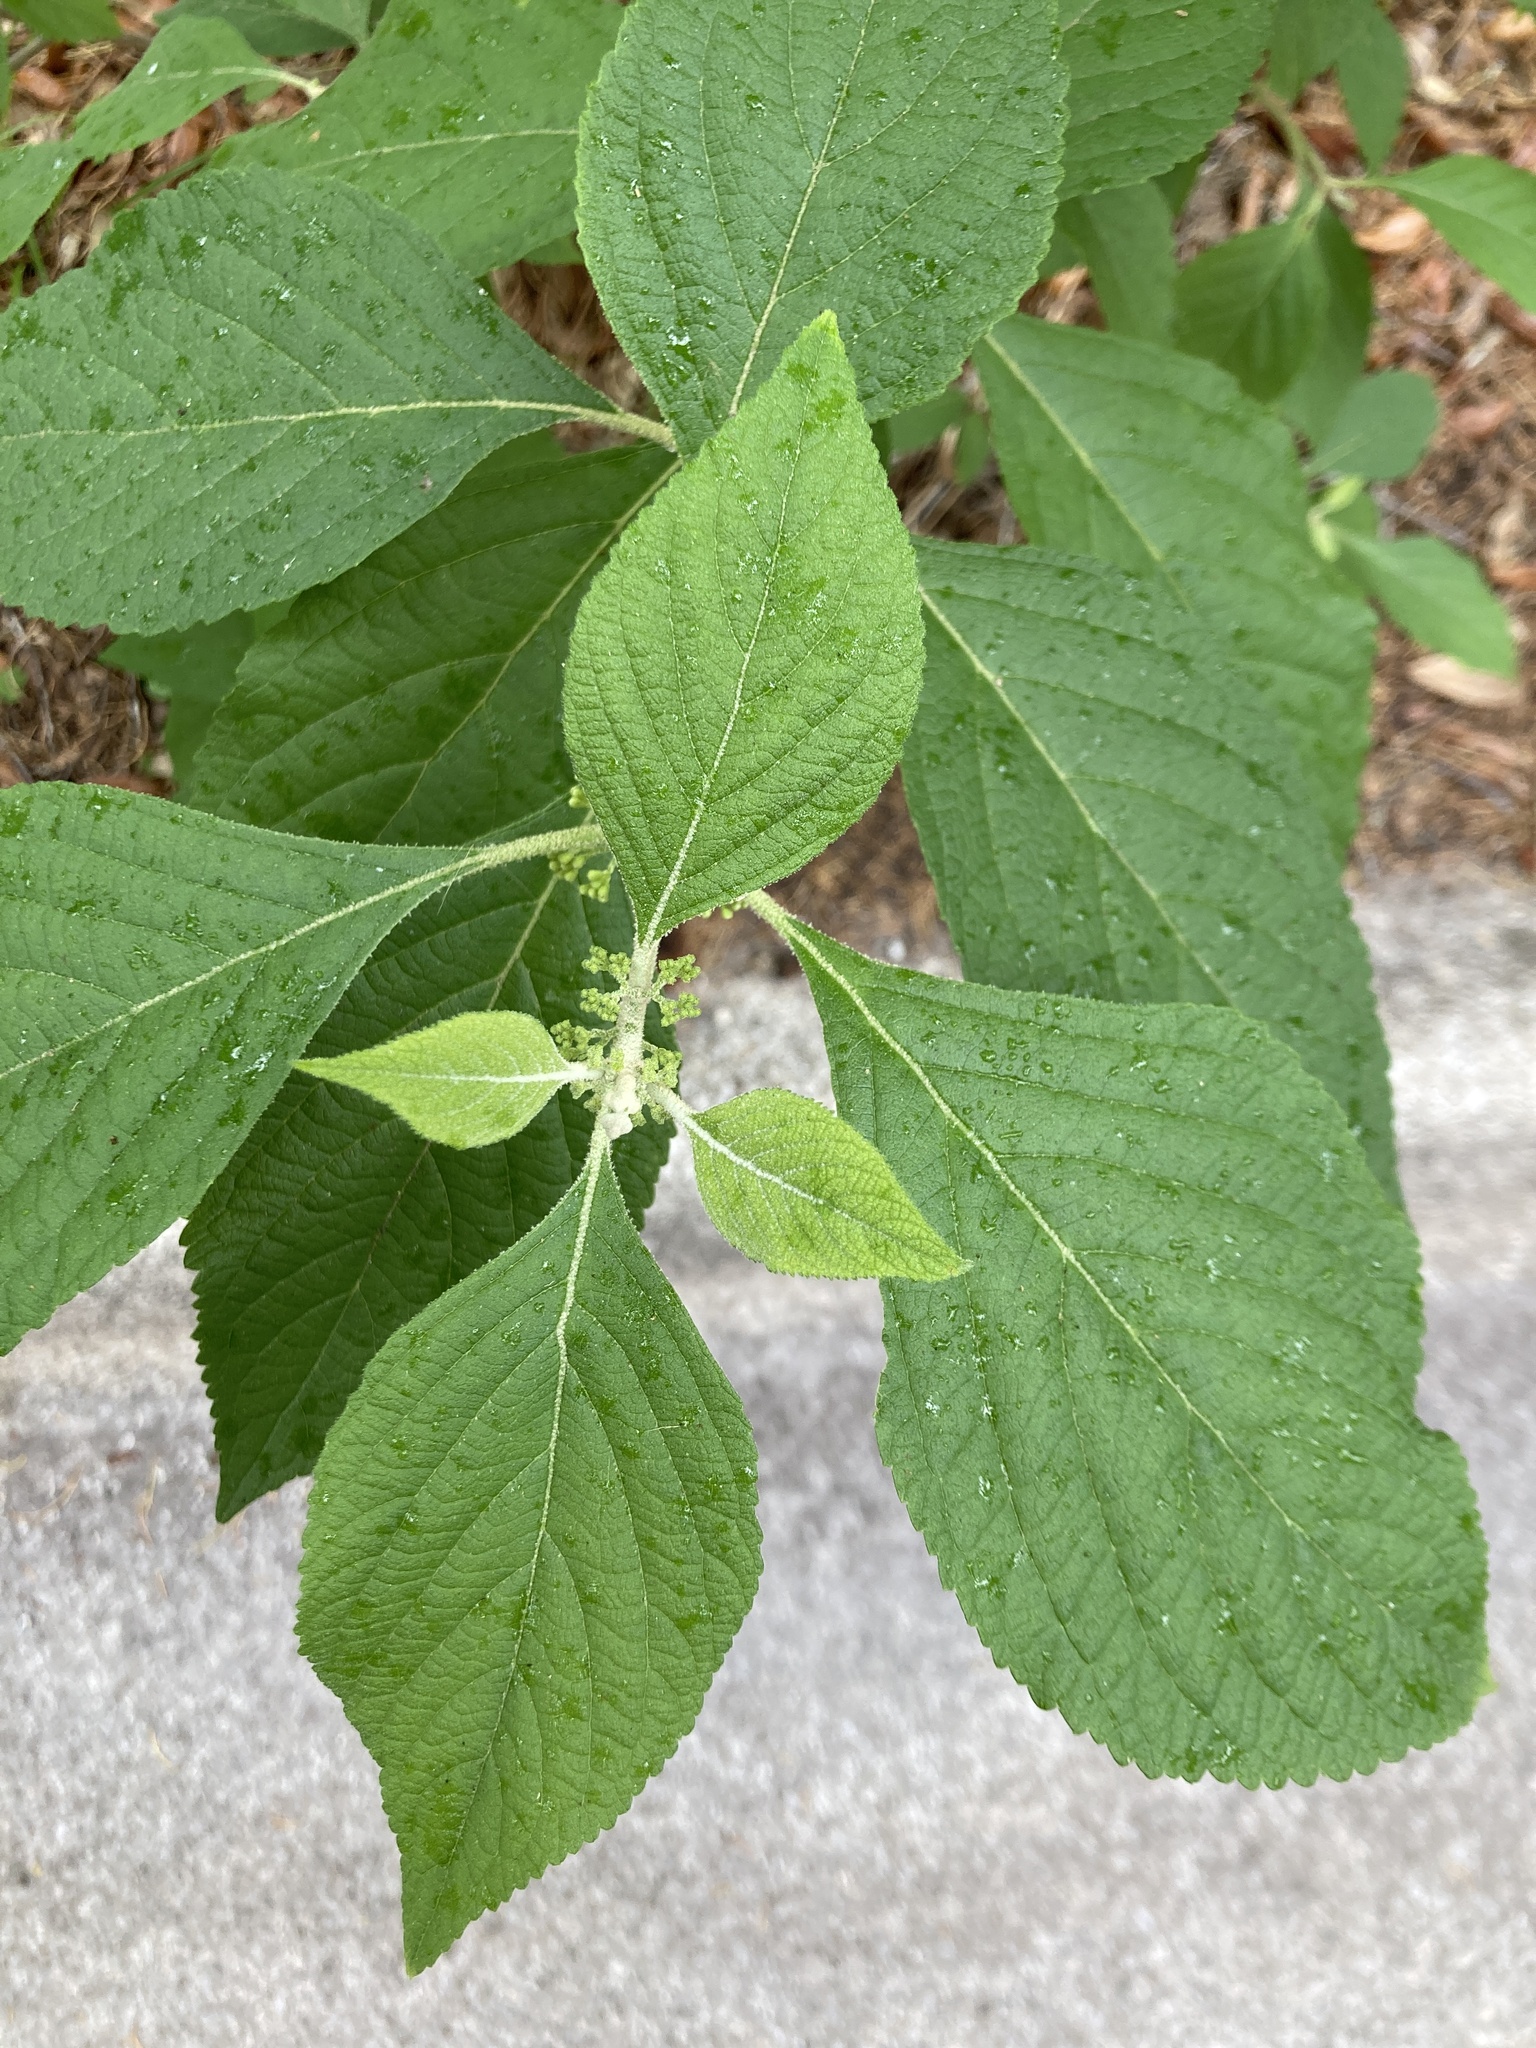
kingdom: Plantae
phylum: Tracheophyta
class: Magnoliopsida
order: Lamiales
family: Lamiaceae
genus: Callicarpa
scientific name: Callicarpa americana
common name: American beautyberry
